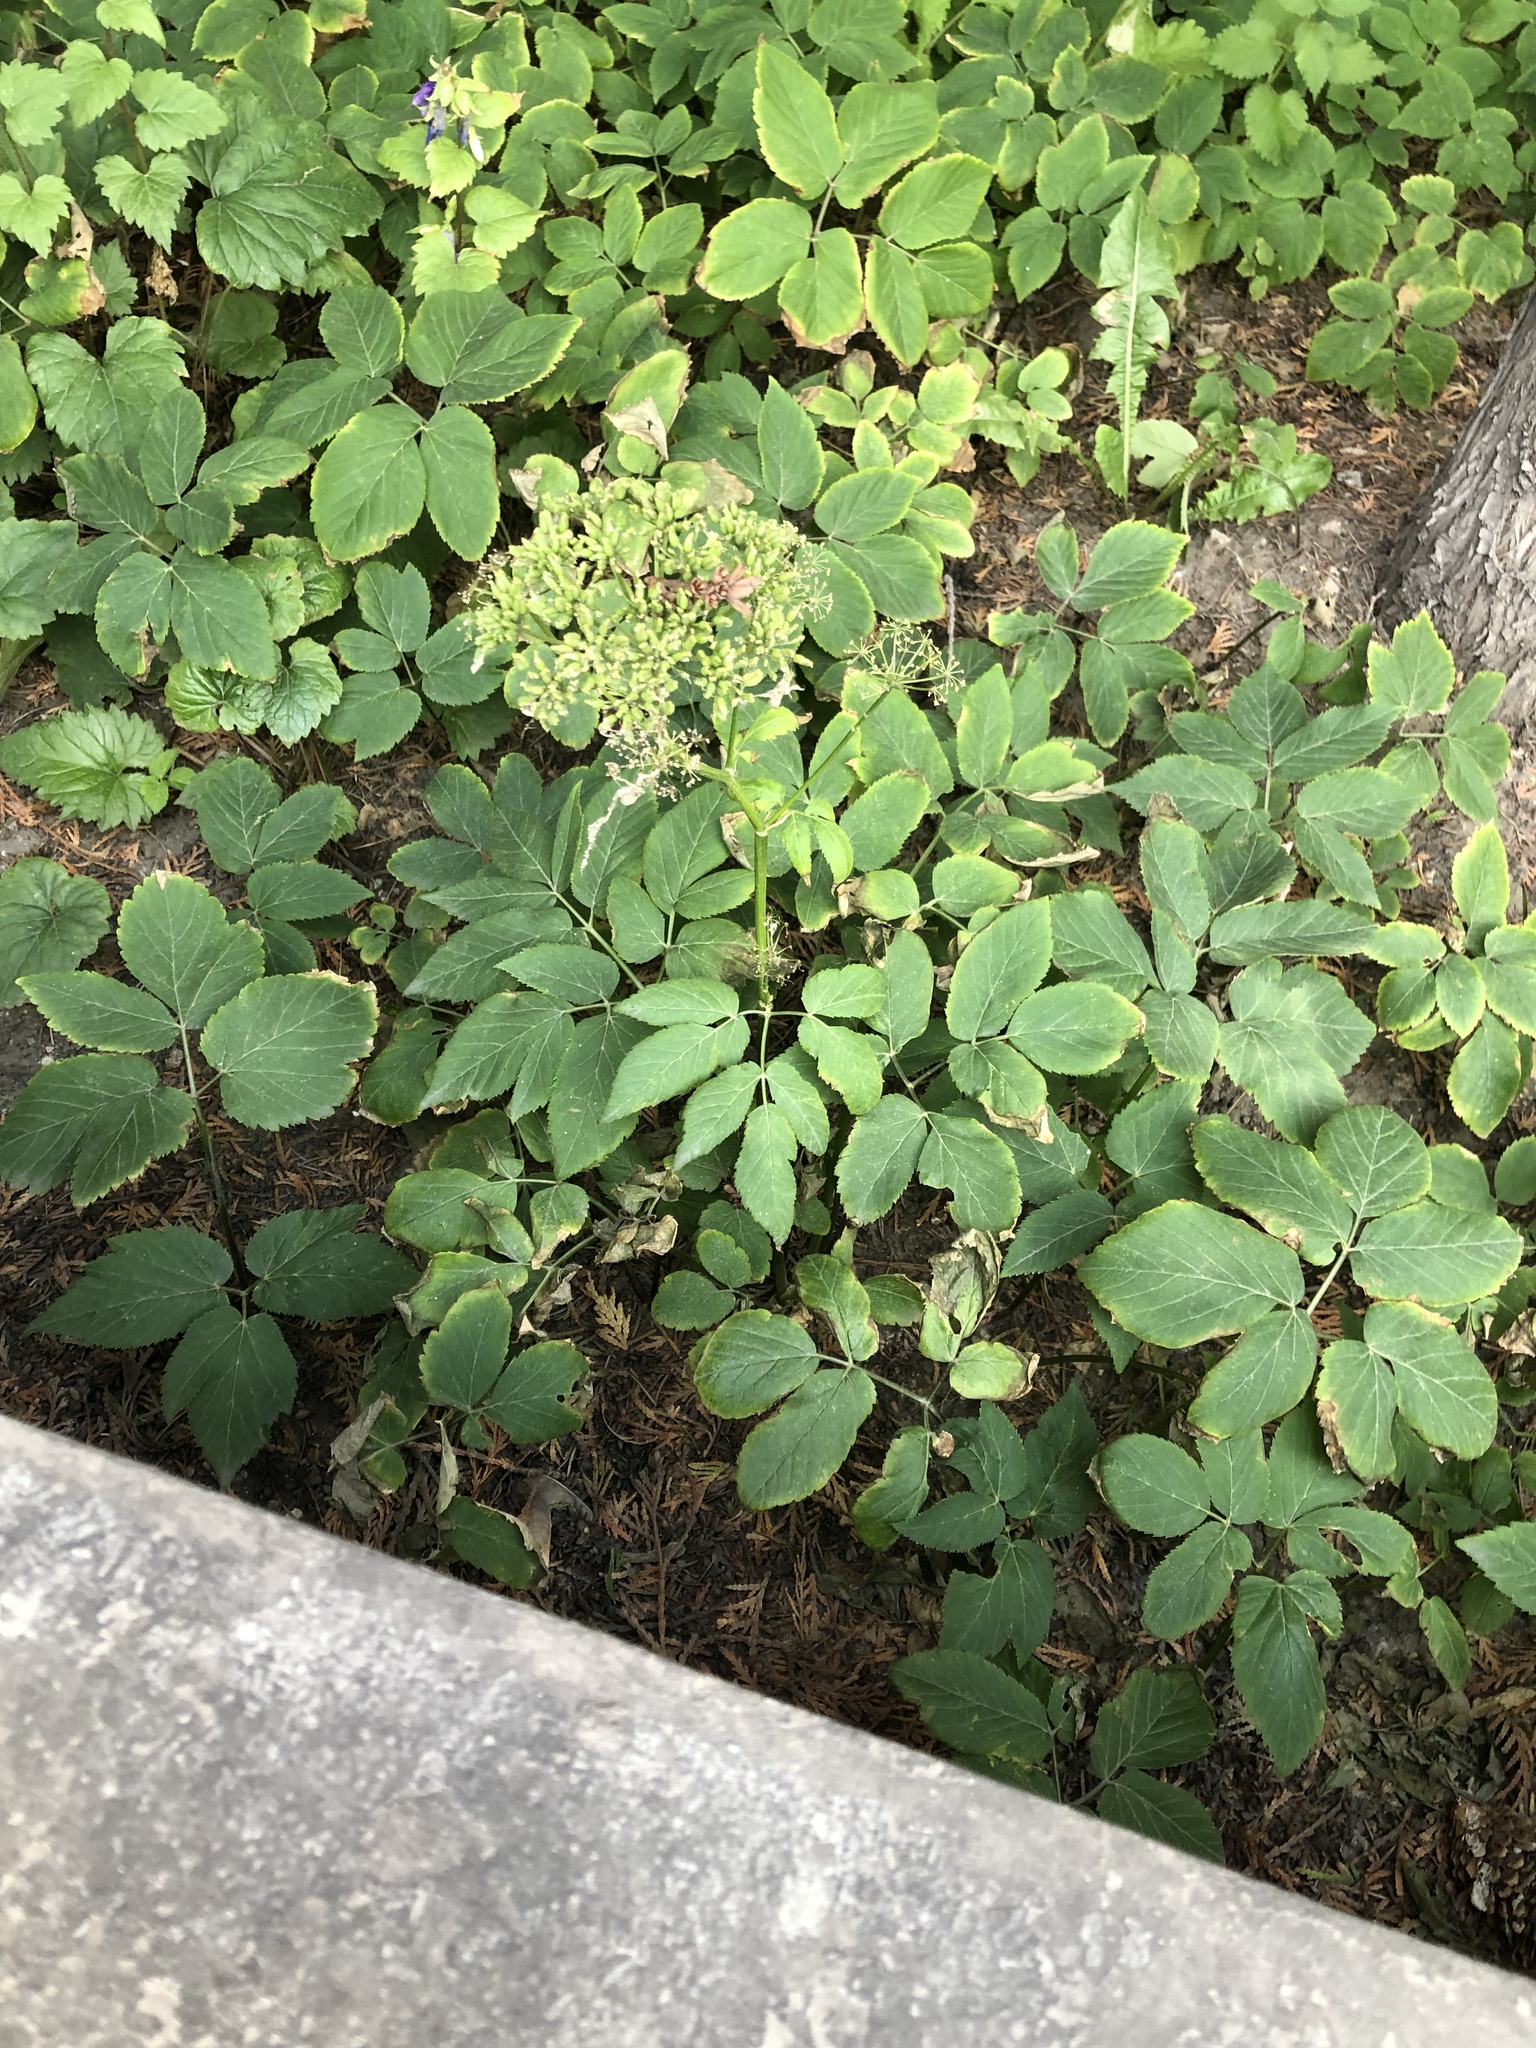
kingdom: Plantae
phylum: Tracheophyta
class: Magnoliopsida
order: Apiales
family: Apiaceae
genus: Aegopodium
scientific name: Aegopodium podagraria
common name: Ground-elder
